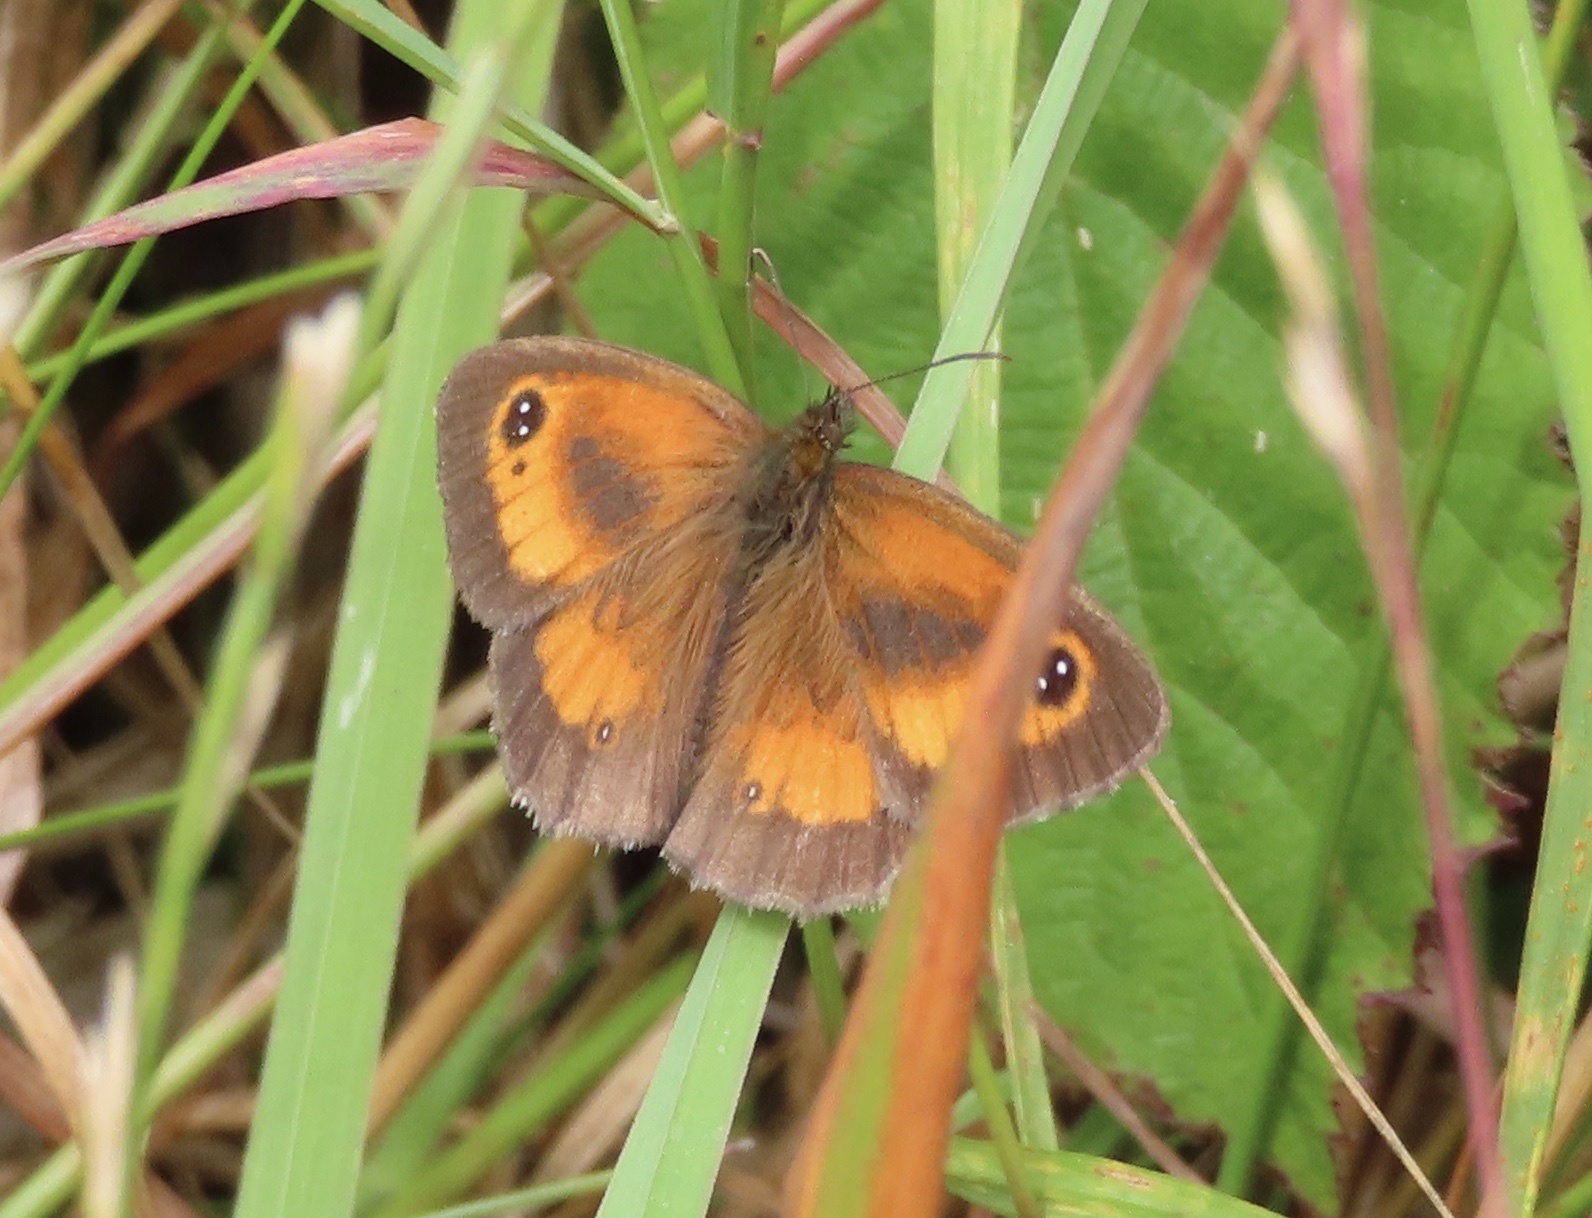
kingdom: Animalia
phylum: Arthropoda
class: Insecta
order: Lepidoptera
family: Nymphalidae
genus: Pyronia
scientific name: Pyronia tithonus
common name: Gatekeeper
